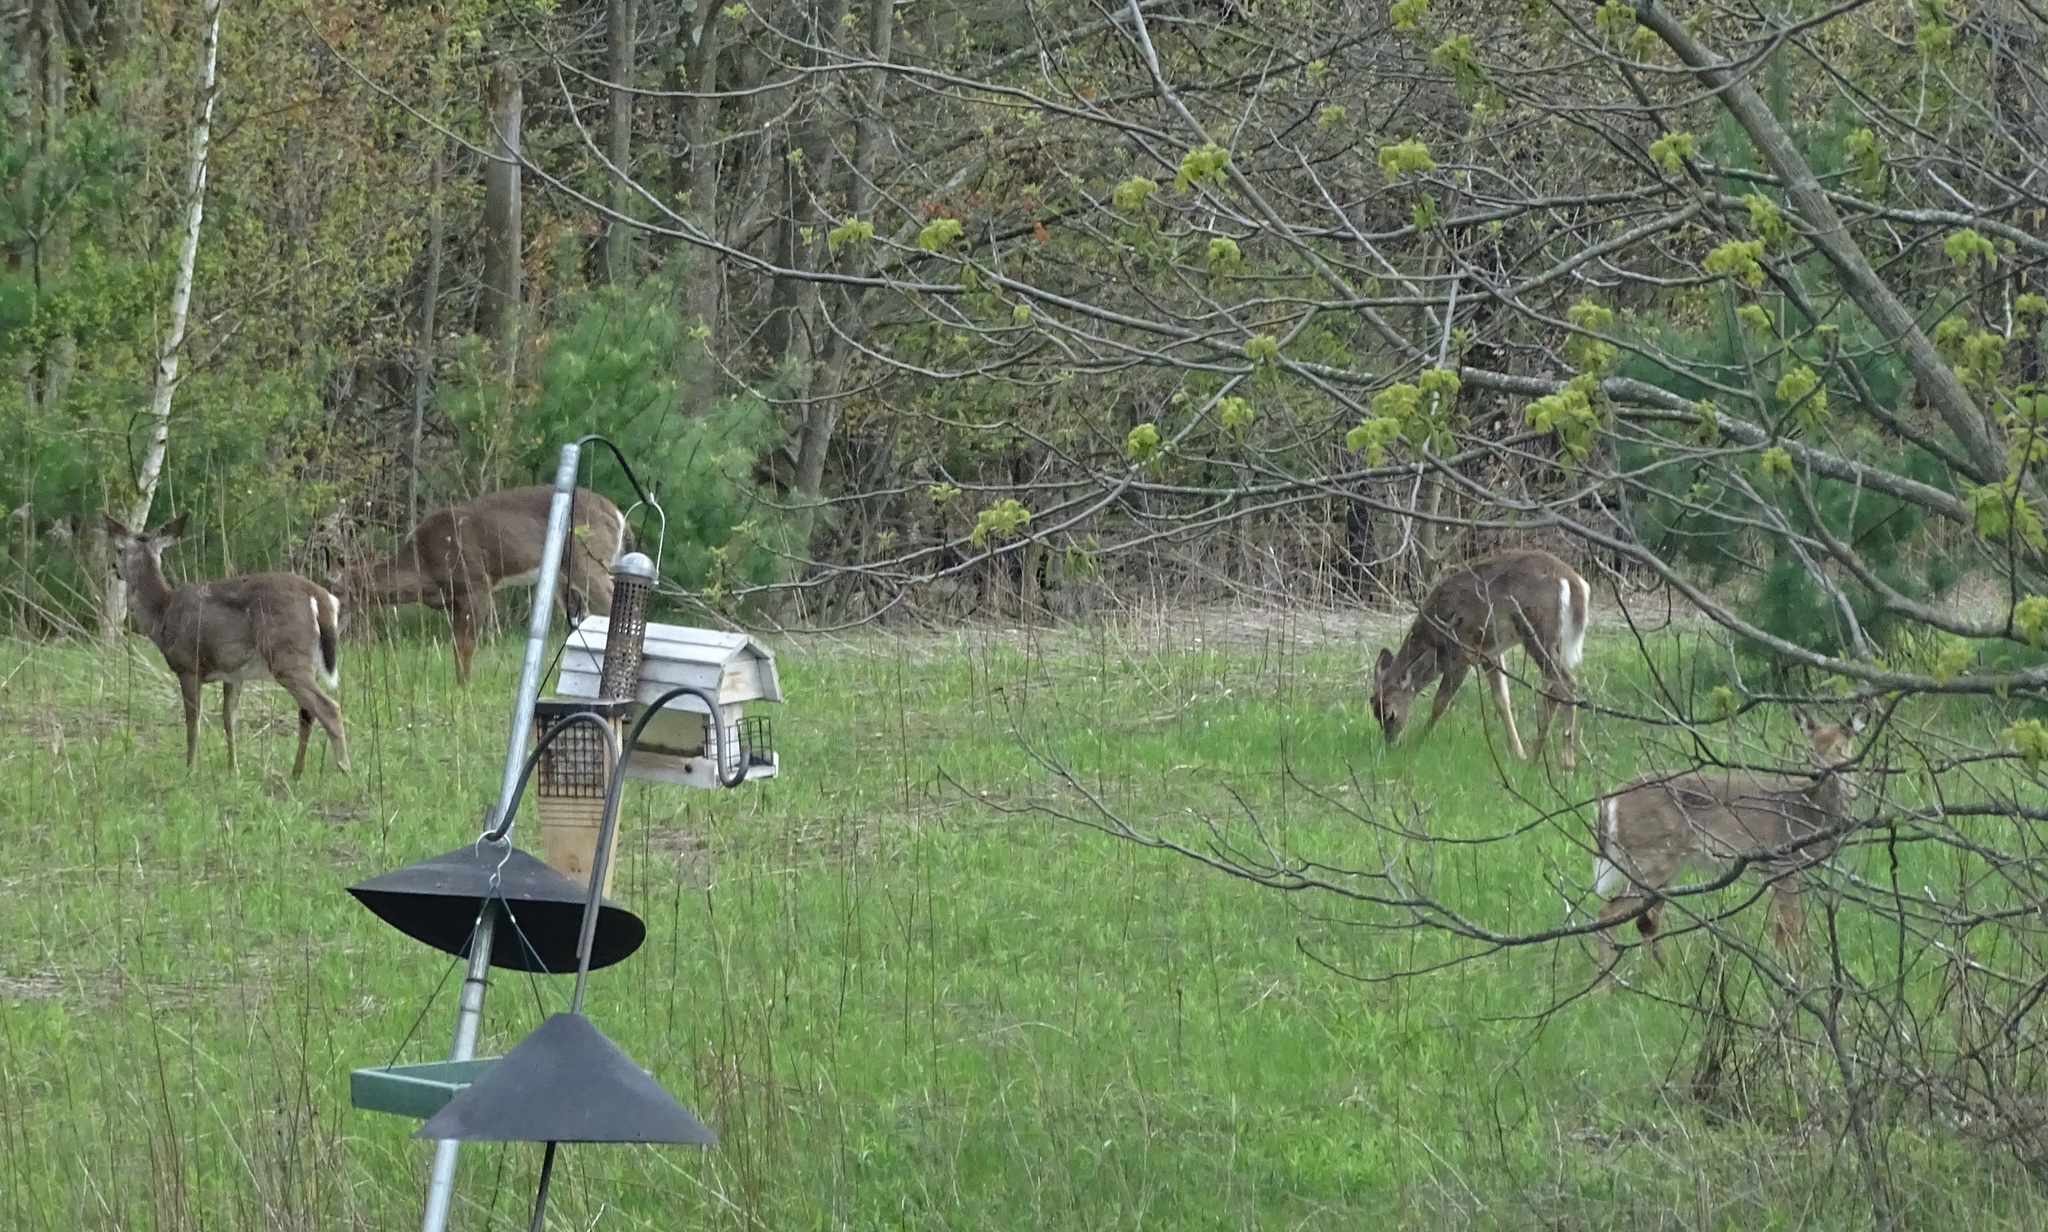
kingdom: Animalia
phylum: Chordata
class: Mammalia
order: Artiodactyla
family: Cervidae
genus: Odocoileus
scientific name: Odocoileus virginianus
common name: White-tailed deer
